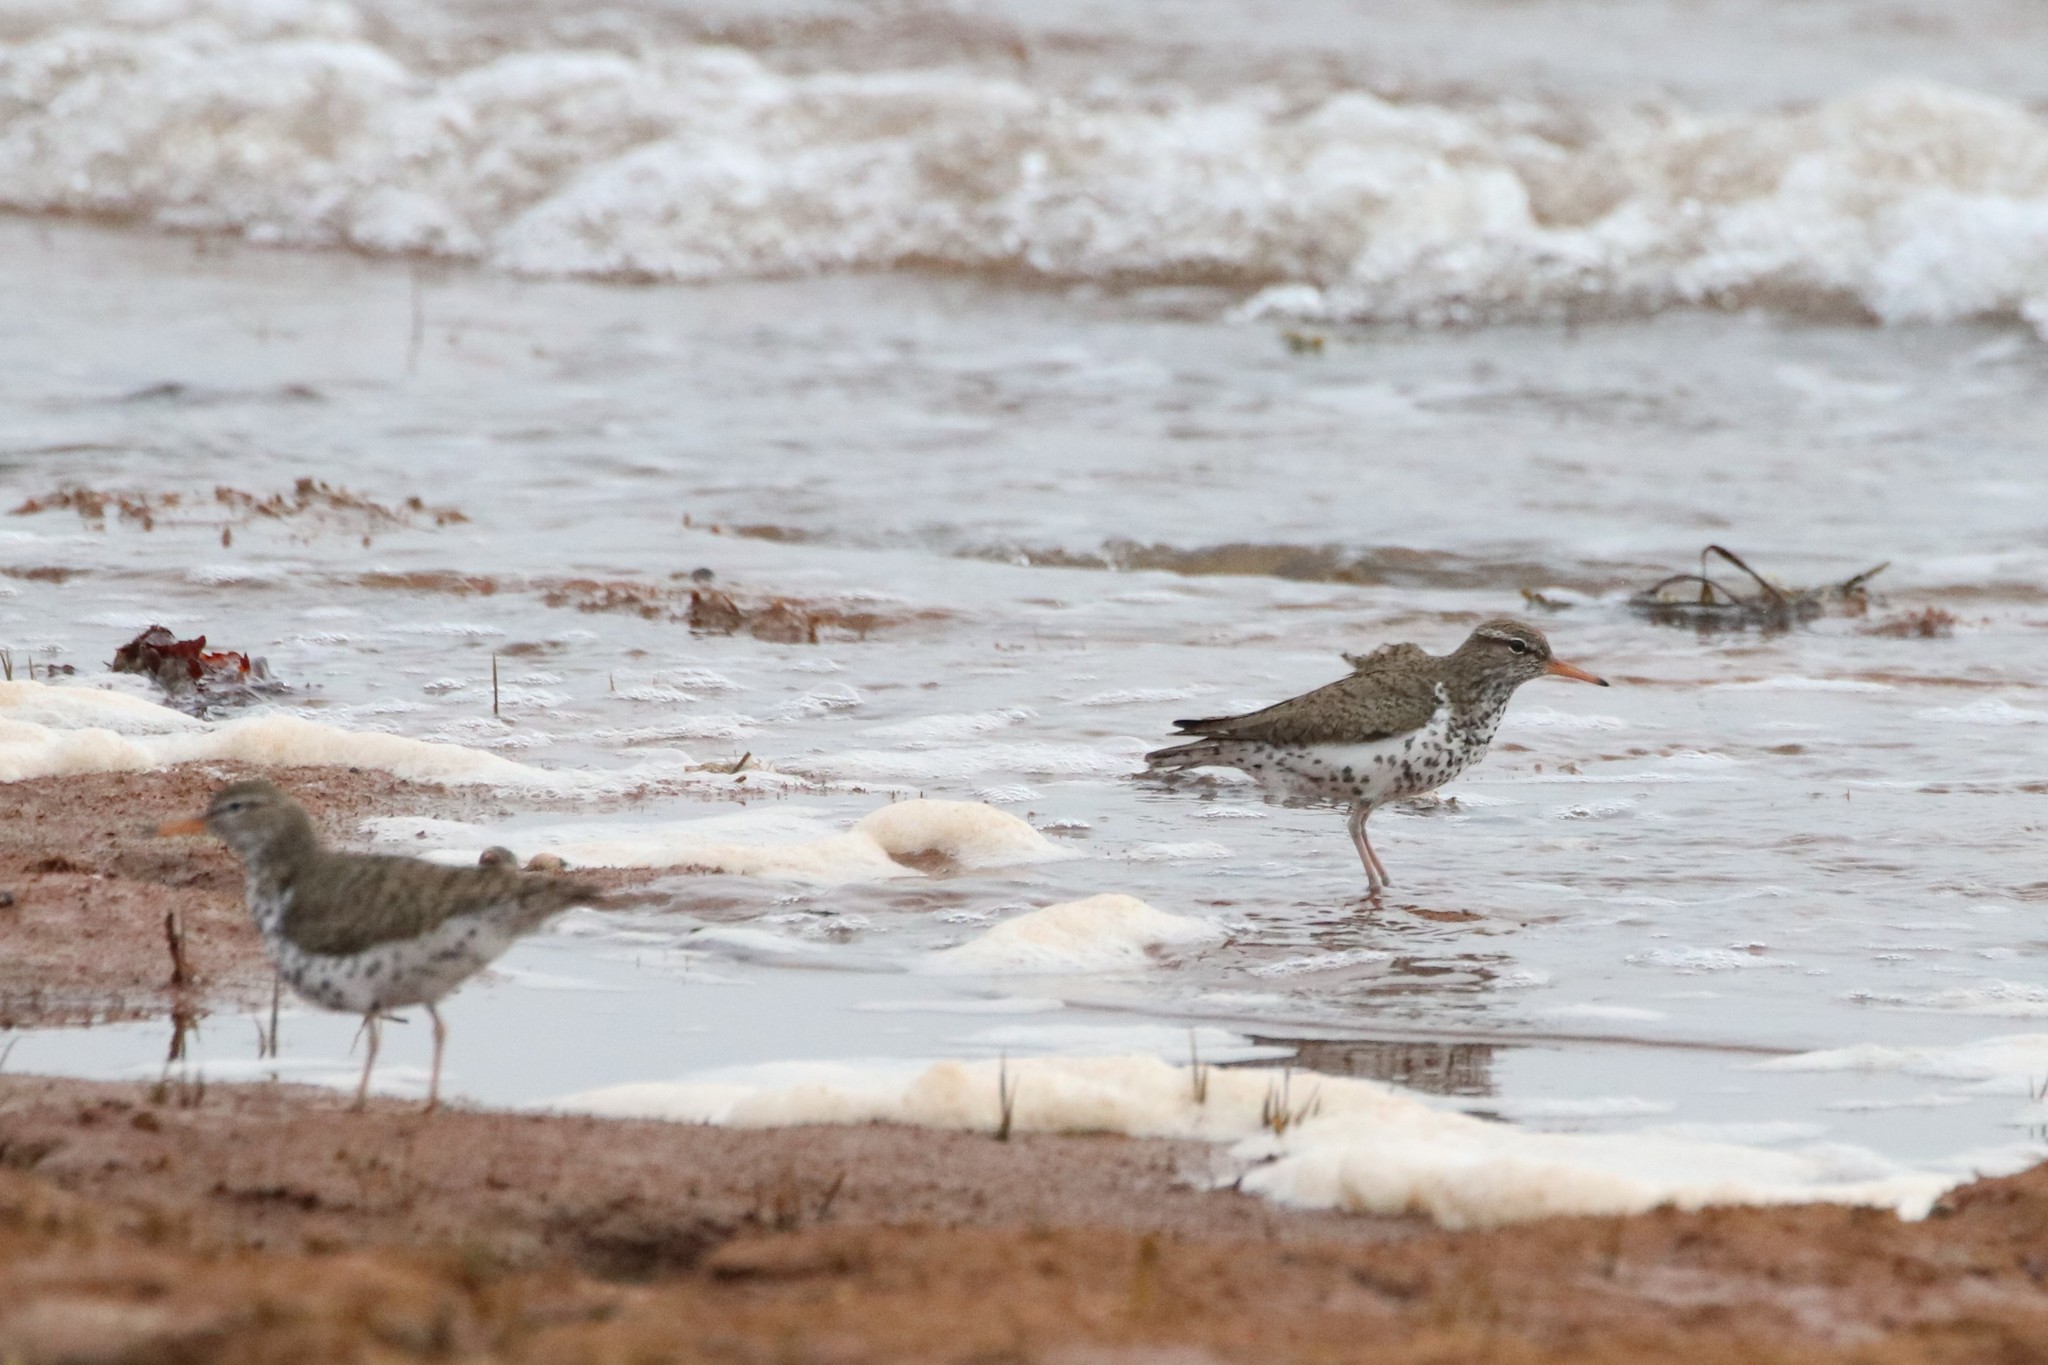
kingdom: Animalia
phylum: Chordata
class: Aves
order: Charadriiformes
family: Scolopacidae
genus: Actitis
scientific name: Actitis macularius
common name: Spotted sandpiper
